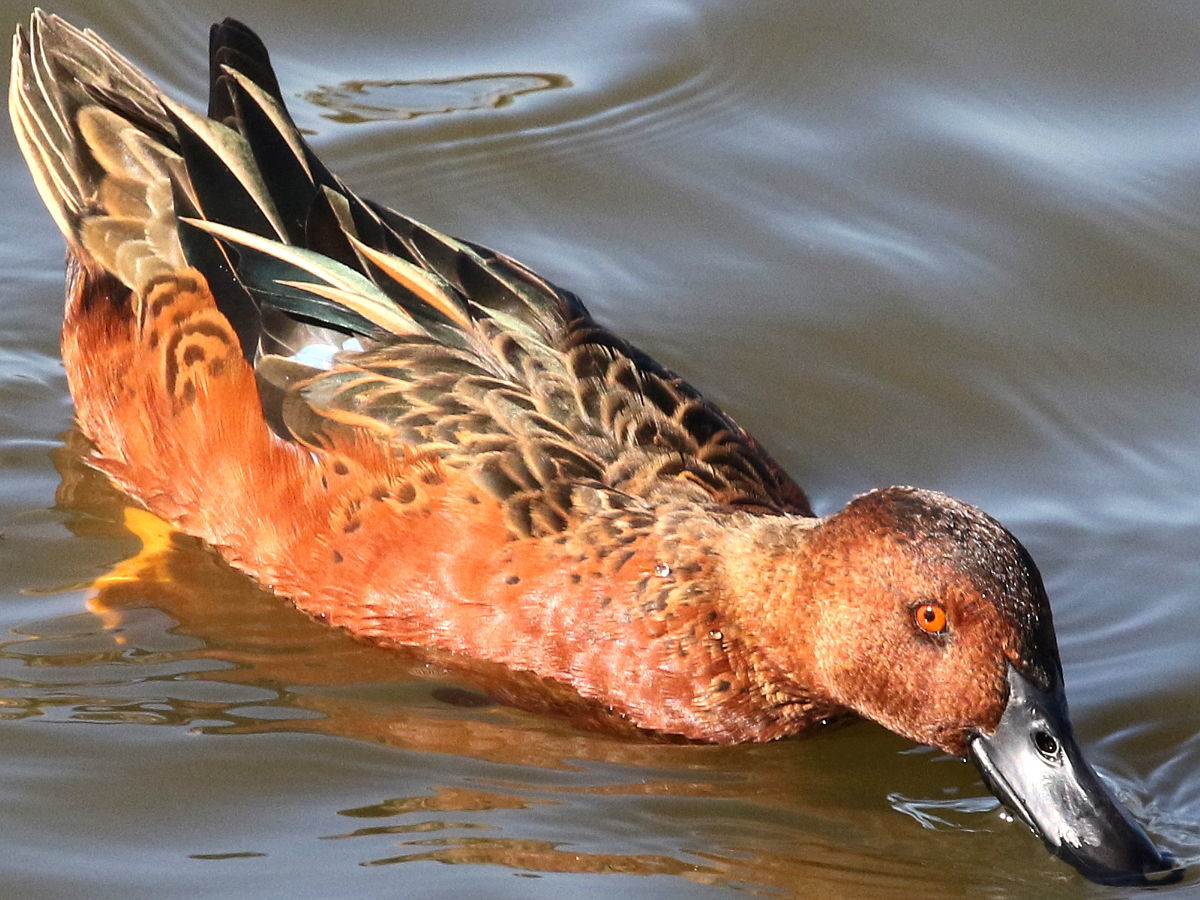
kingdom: Animalia
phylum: Chordata
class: Aves
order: Anseriformes
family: Anatidae
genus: Spatula
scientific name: Spatula cyanoptera
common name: Cinnamon teal
